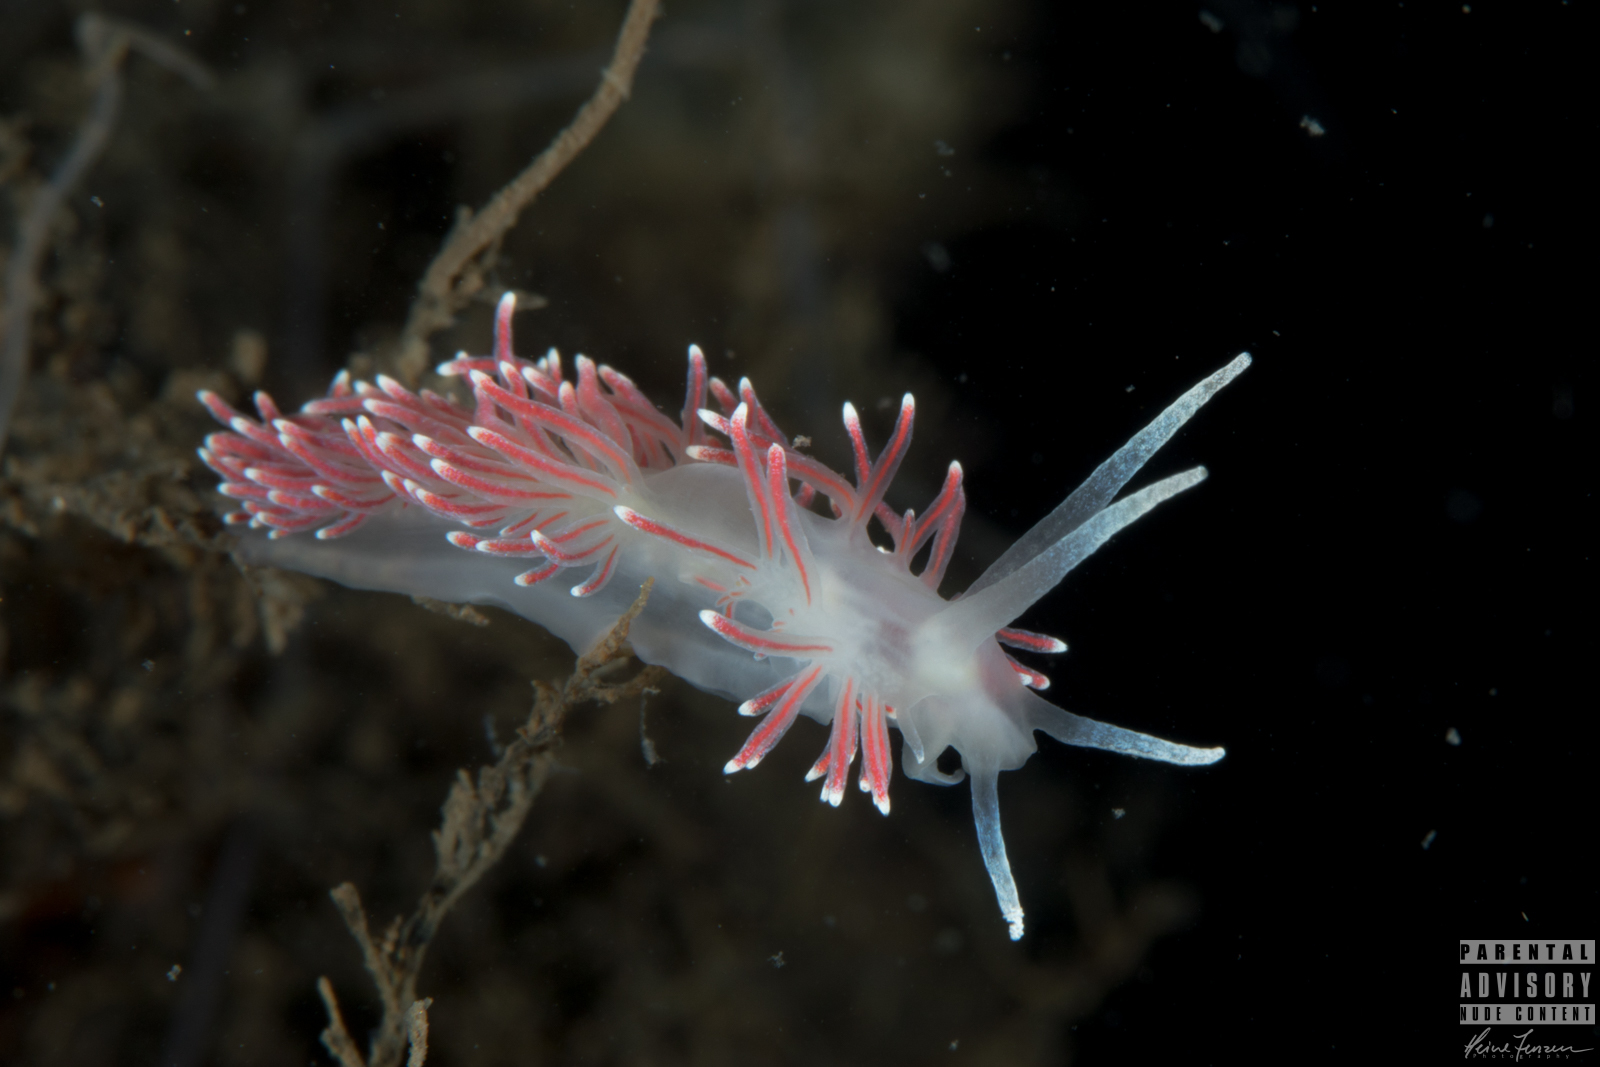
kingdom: Animalia
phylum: Mollusca
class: Gastropoda
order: Nudibranchia
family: Flabellinidae
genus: Carronella
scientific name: Carronella pellucida
